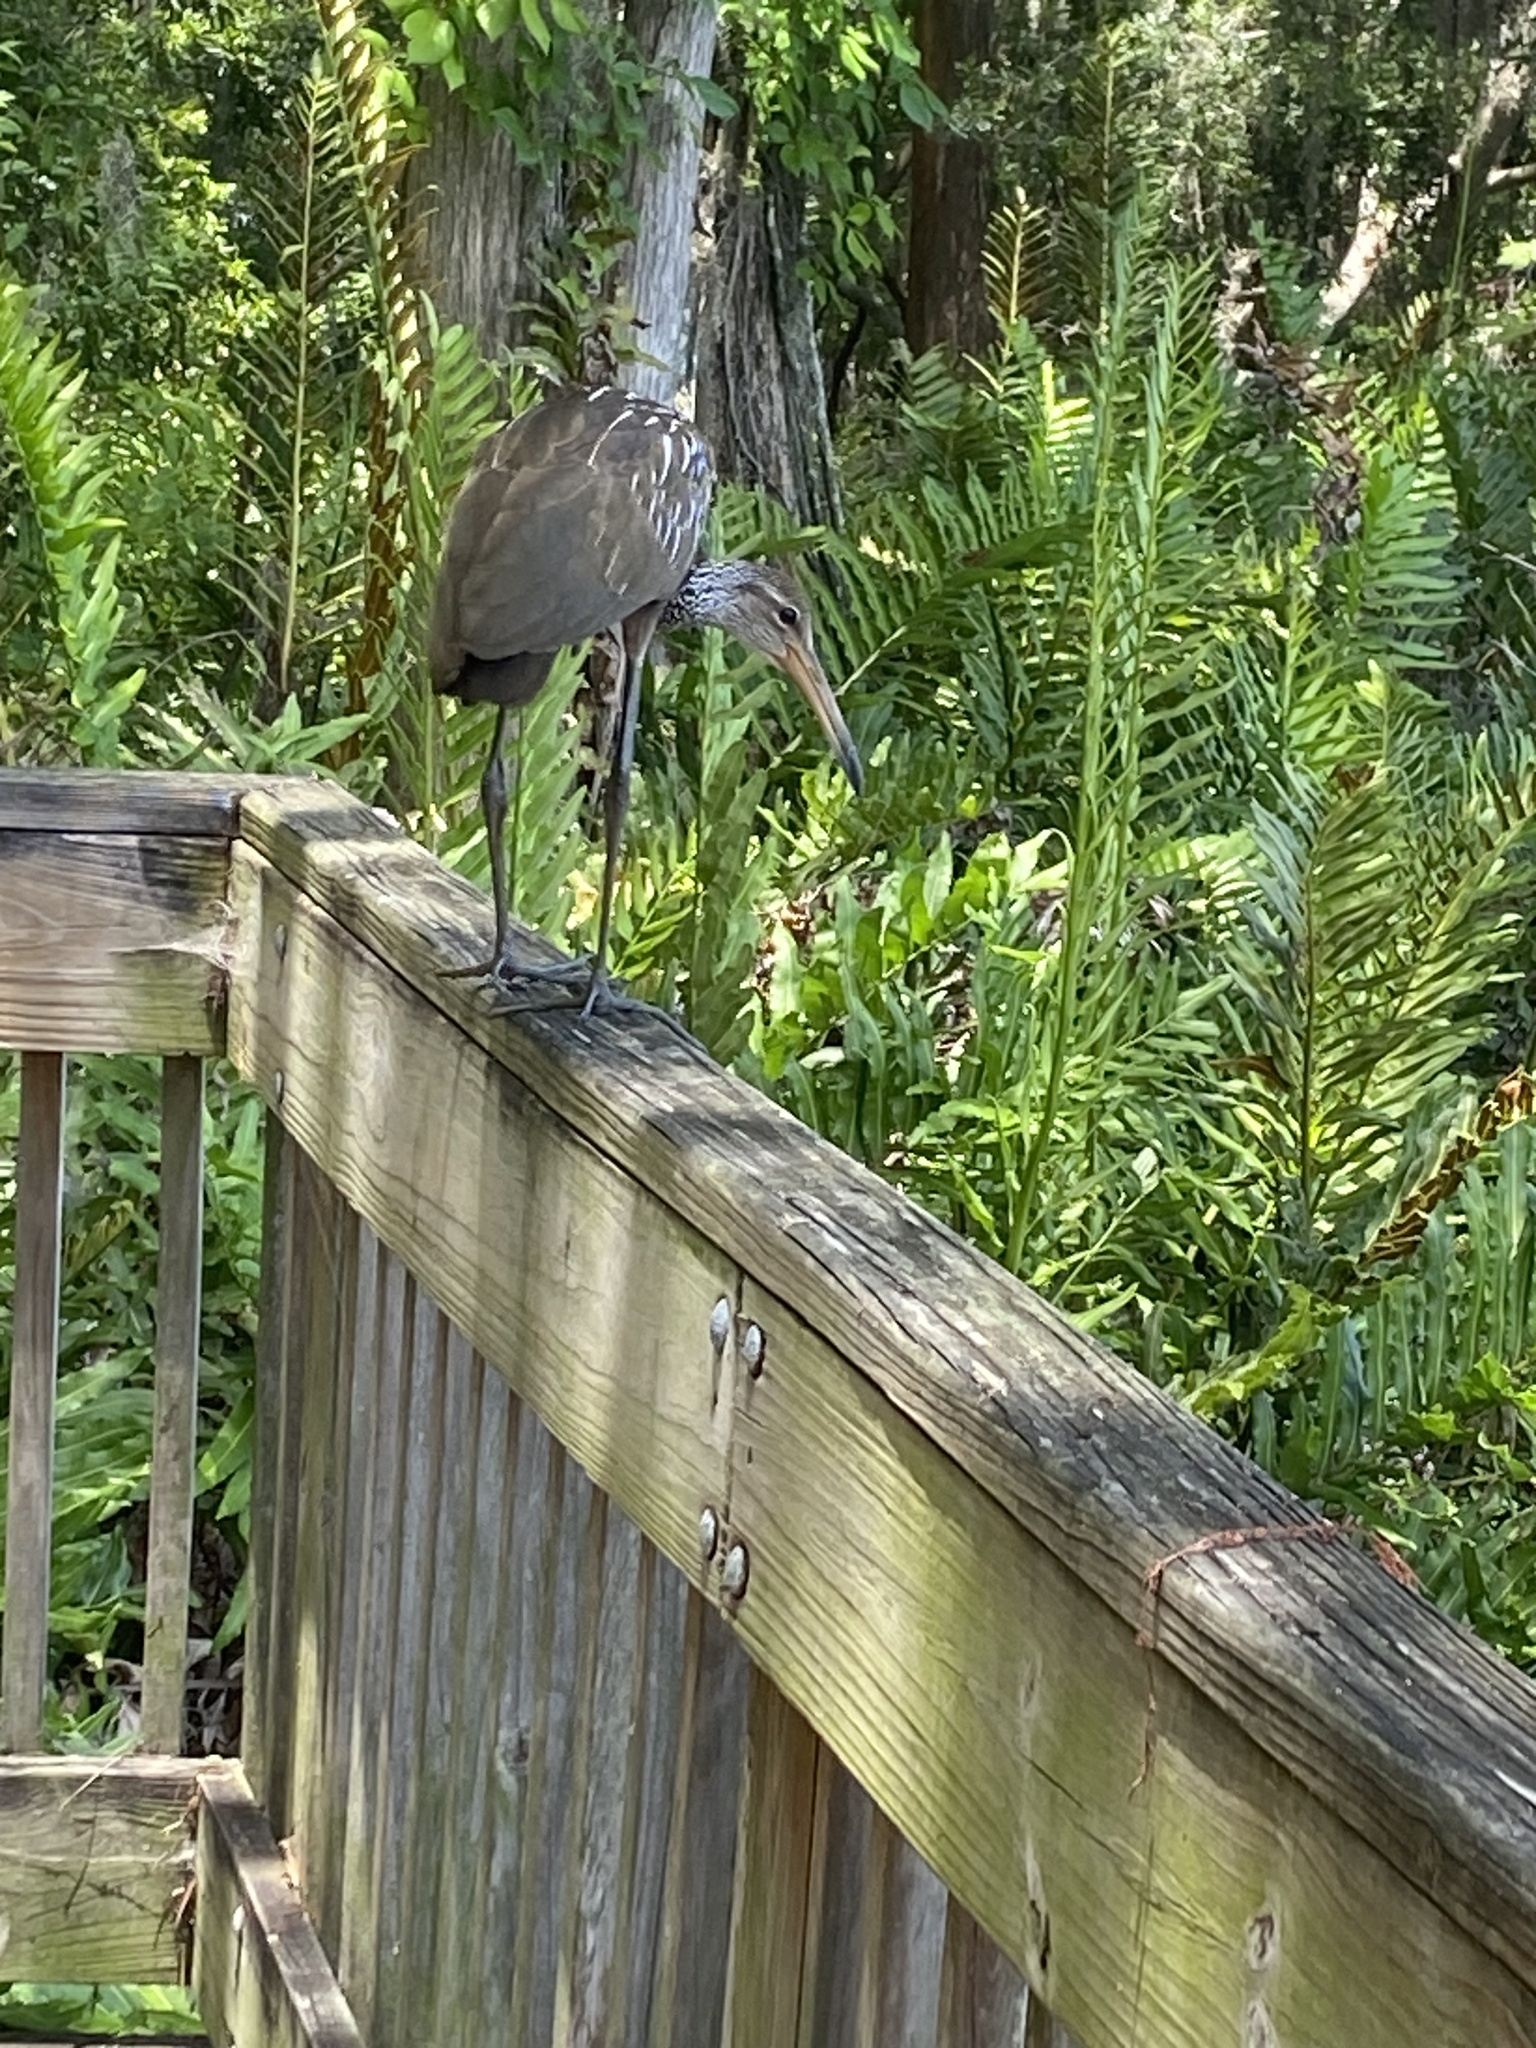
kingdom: Animalia
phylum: Chordata
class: Aves
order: Gruiformes
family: Aramidae
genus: Aramus
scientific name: Aramus guarauna
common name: Limpkin
